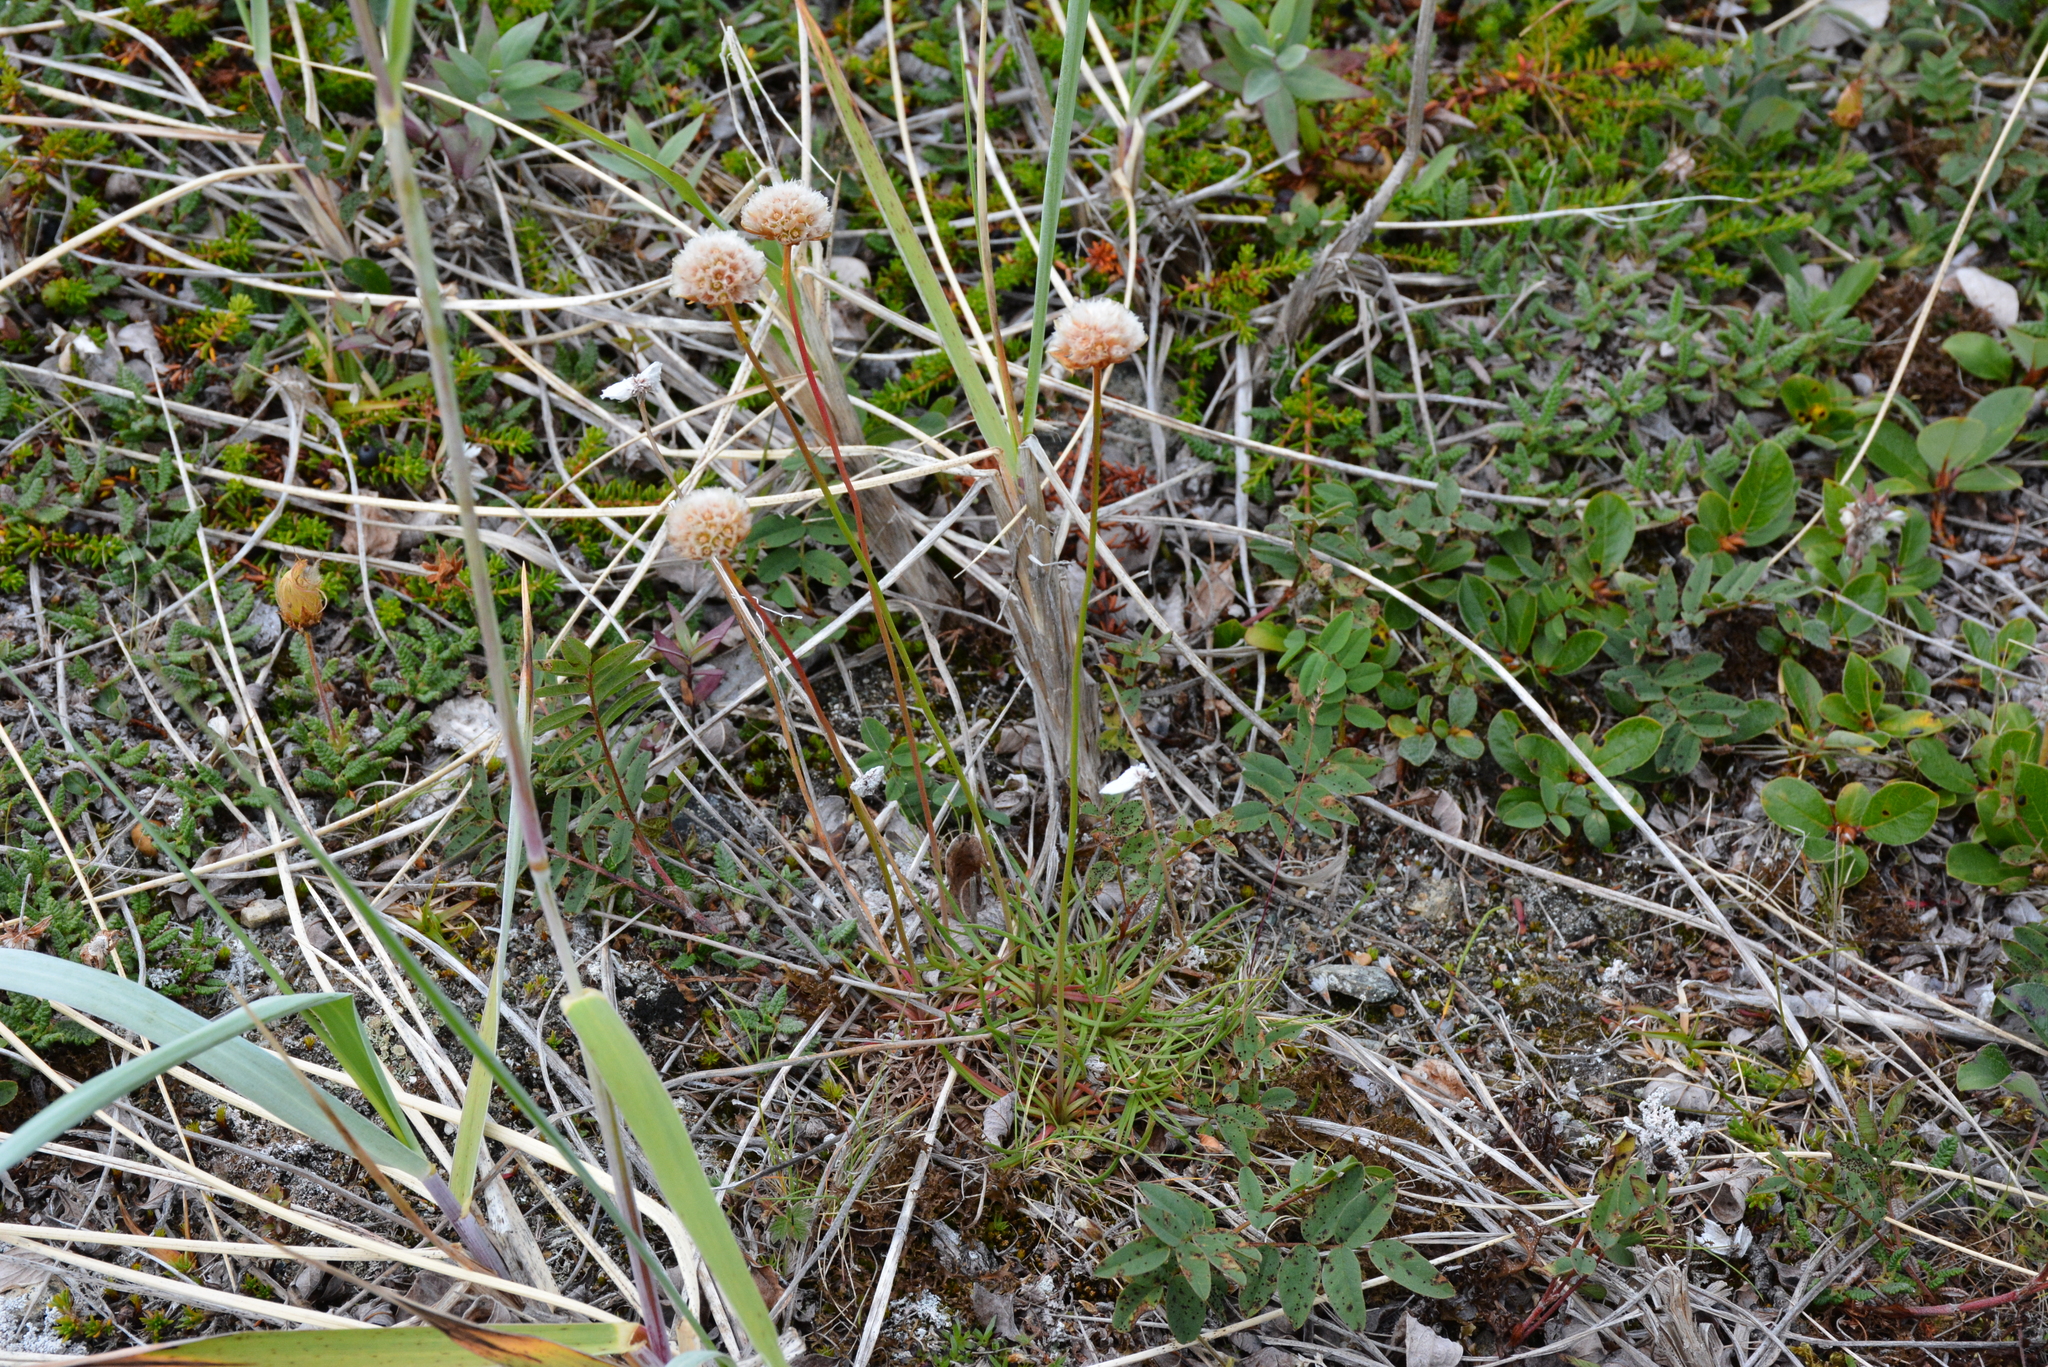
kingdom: Plantae
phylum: Tracheophyta
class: Magnoliopsida
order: Caryophyllales
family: Plumbaginaceae
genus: Armeria
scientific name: Armeria maritima
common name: Thrift
